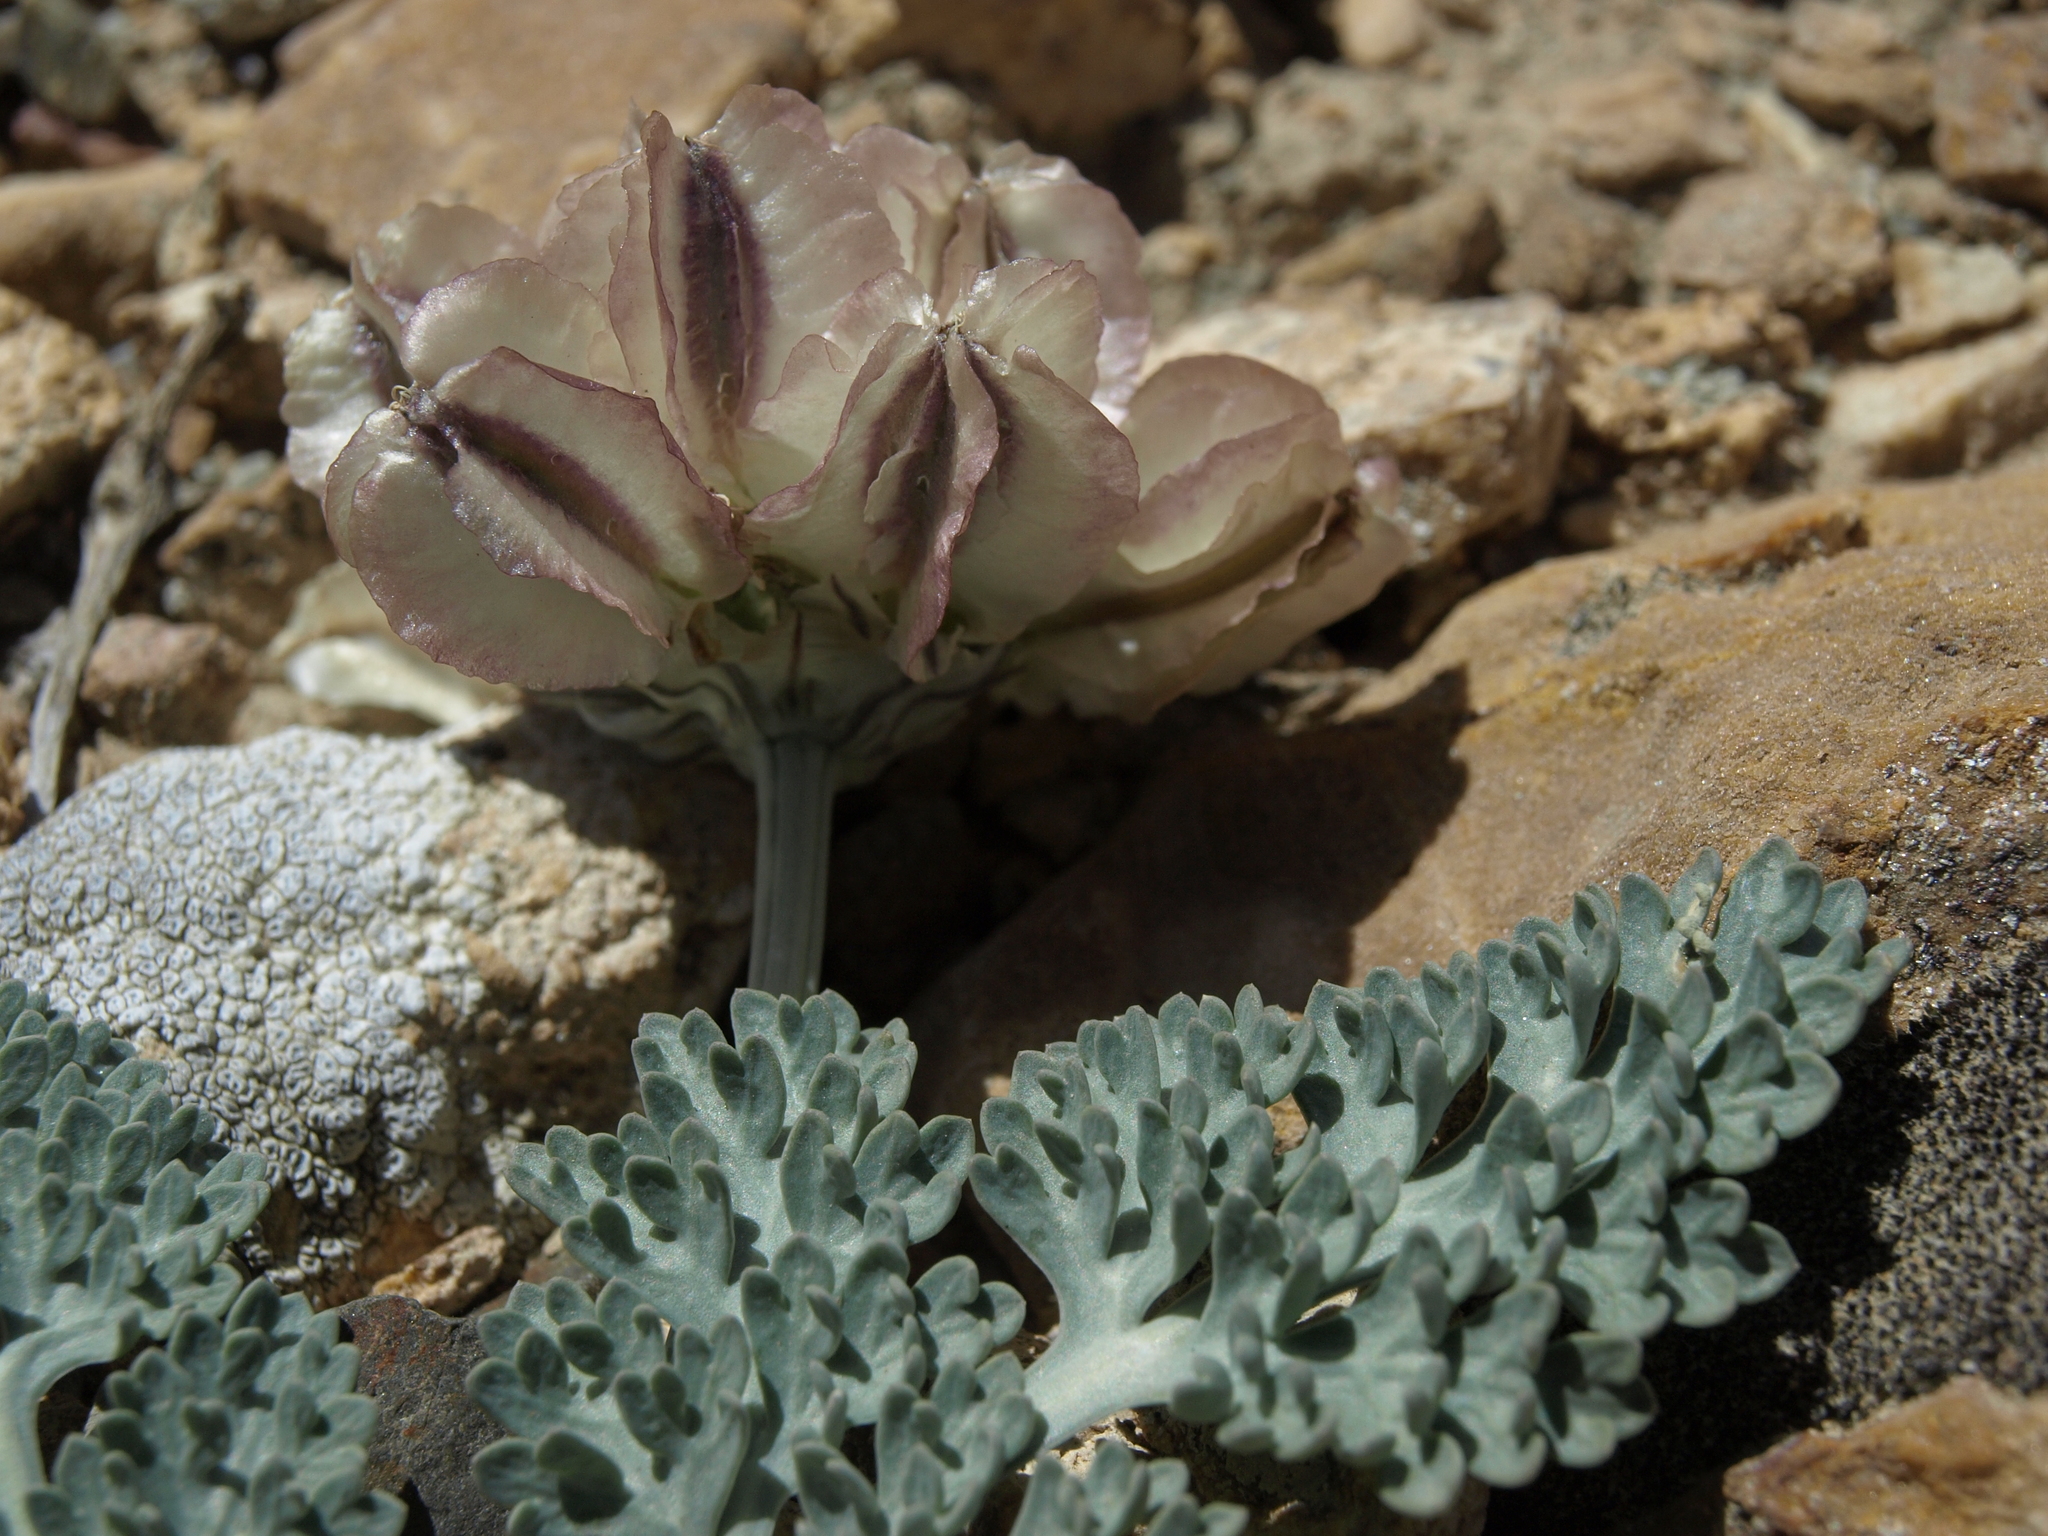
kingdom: Plantae
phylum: Tracheophyta
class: Magnoliopsida
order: Apiales
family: Apiaceae
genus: Vesper
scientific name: Vesper purpurascens
